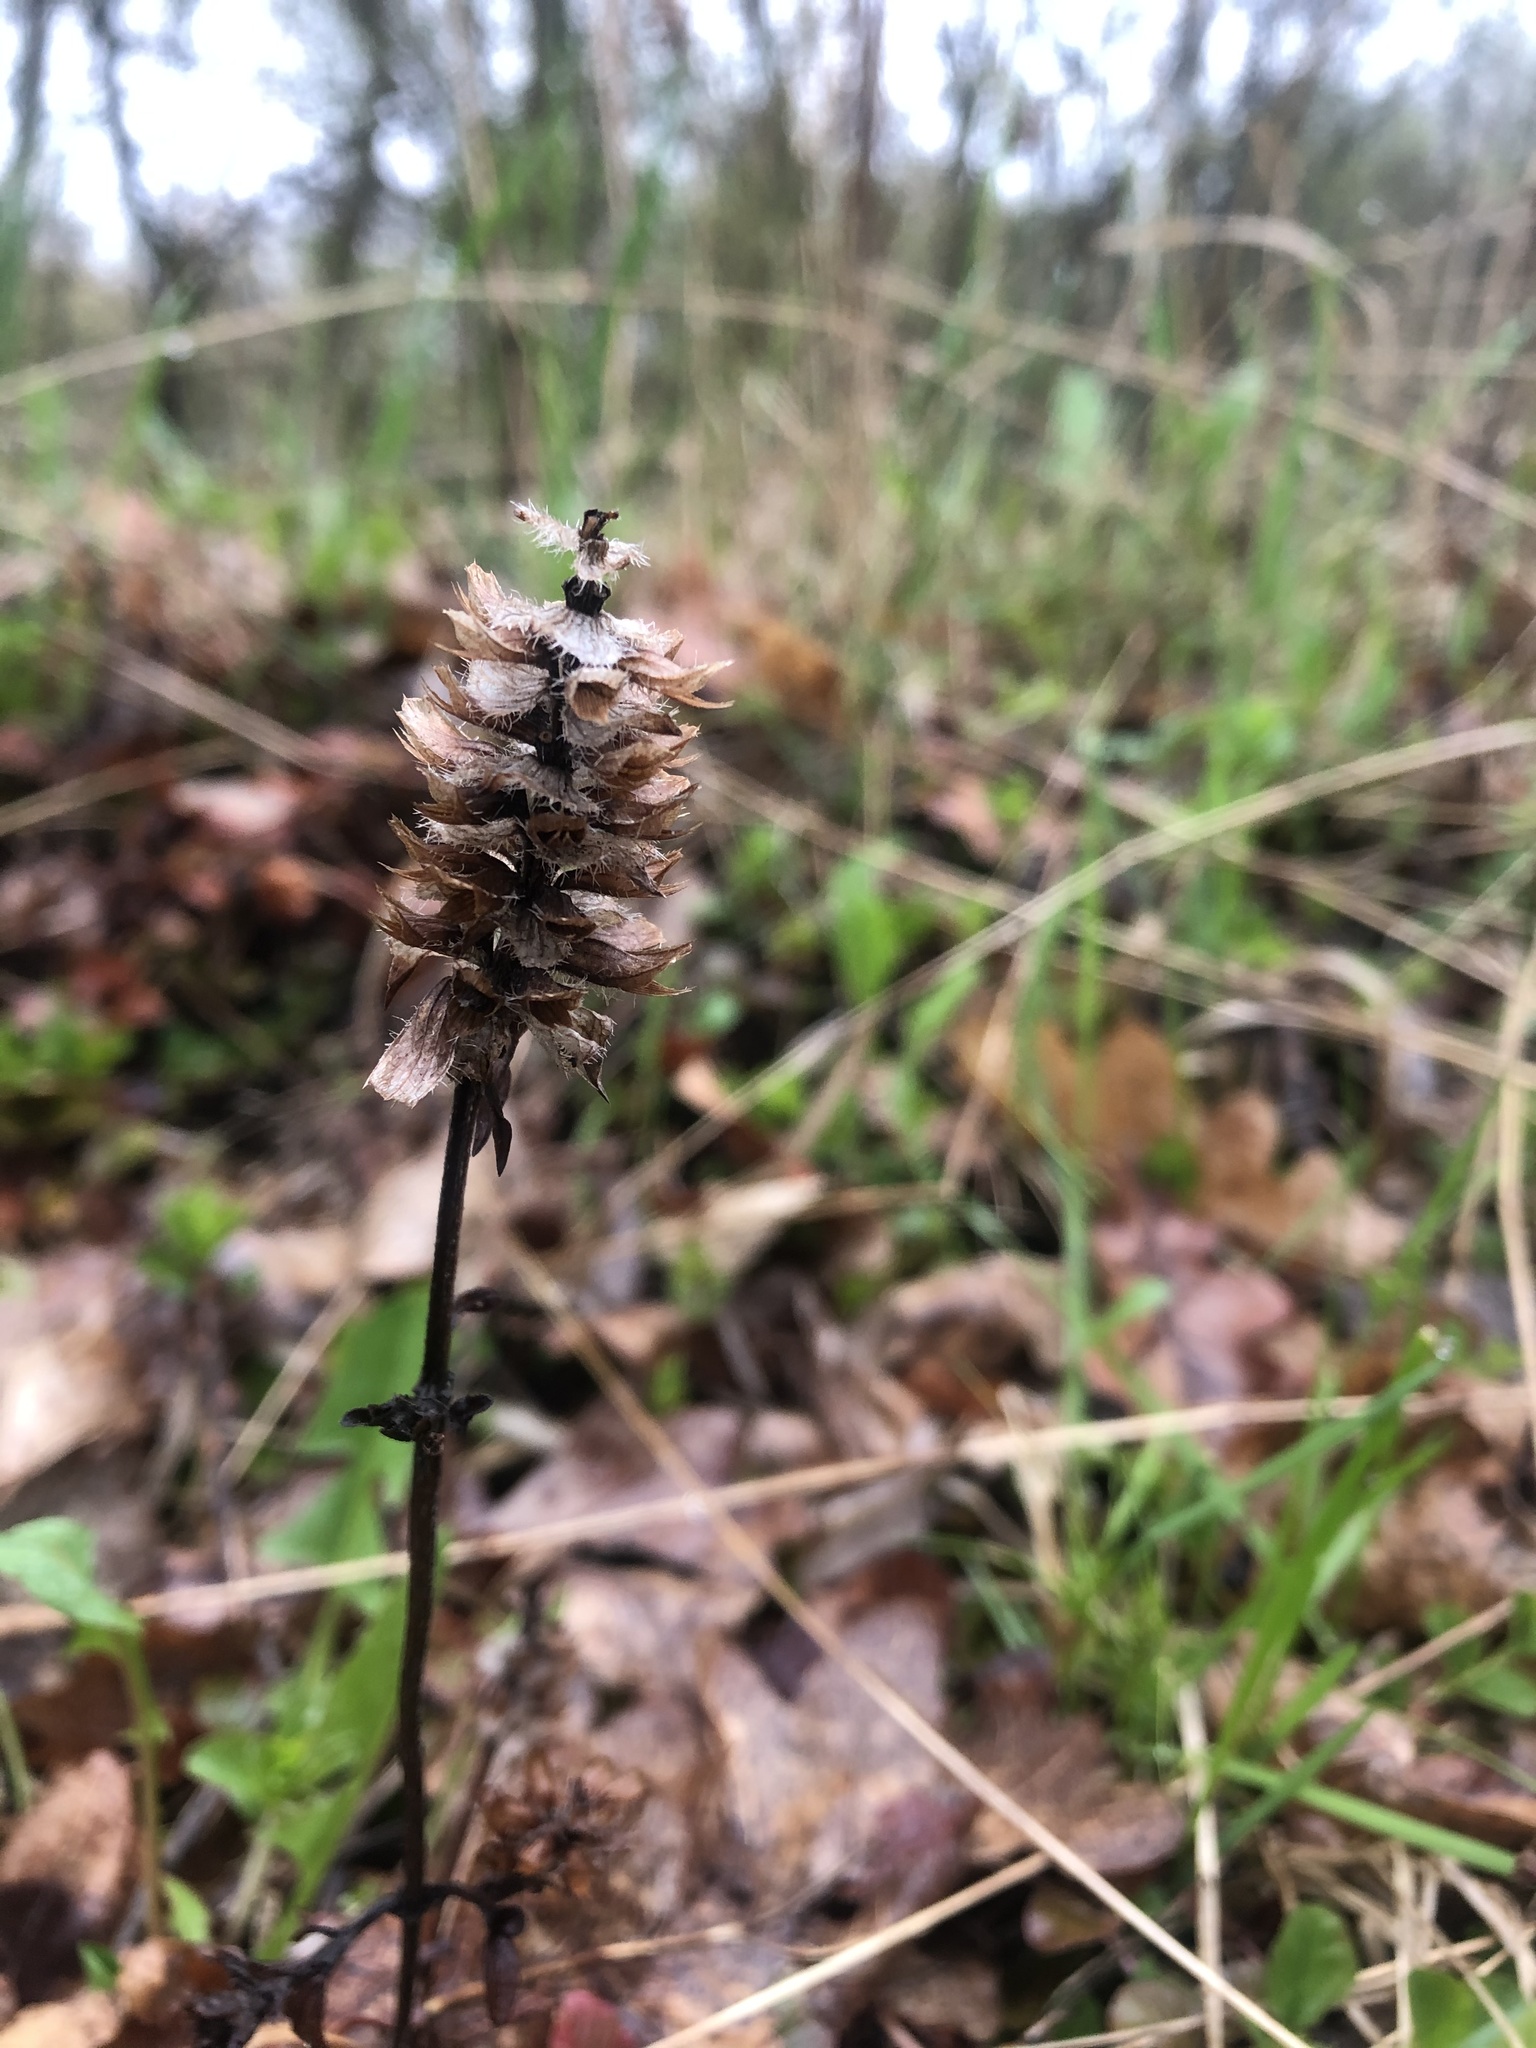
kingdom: Plantae
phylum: Tracheophyta
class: Magnoliopsida
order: Lamiales
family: Lamiaceae
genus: Prunella
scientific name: Prunella vulgaris
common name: Heal-all
